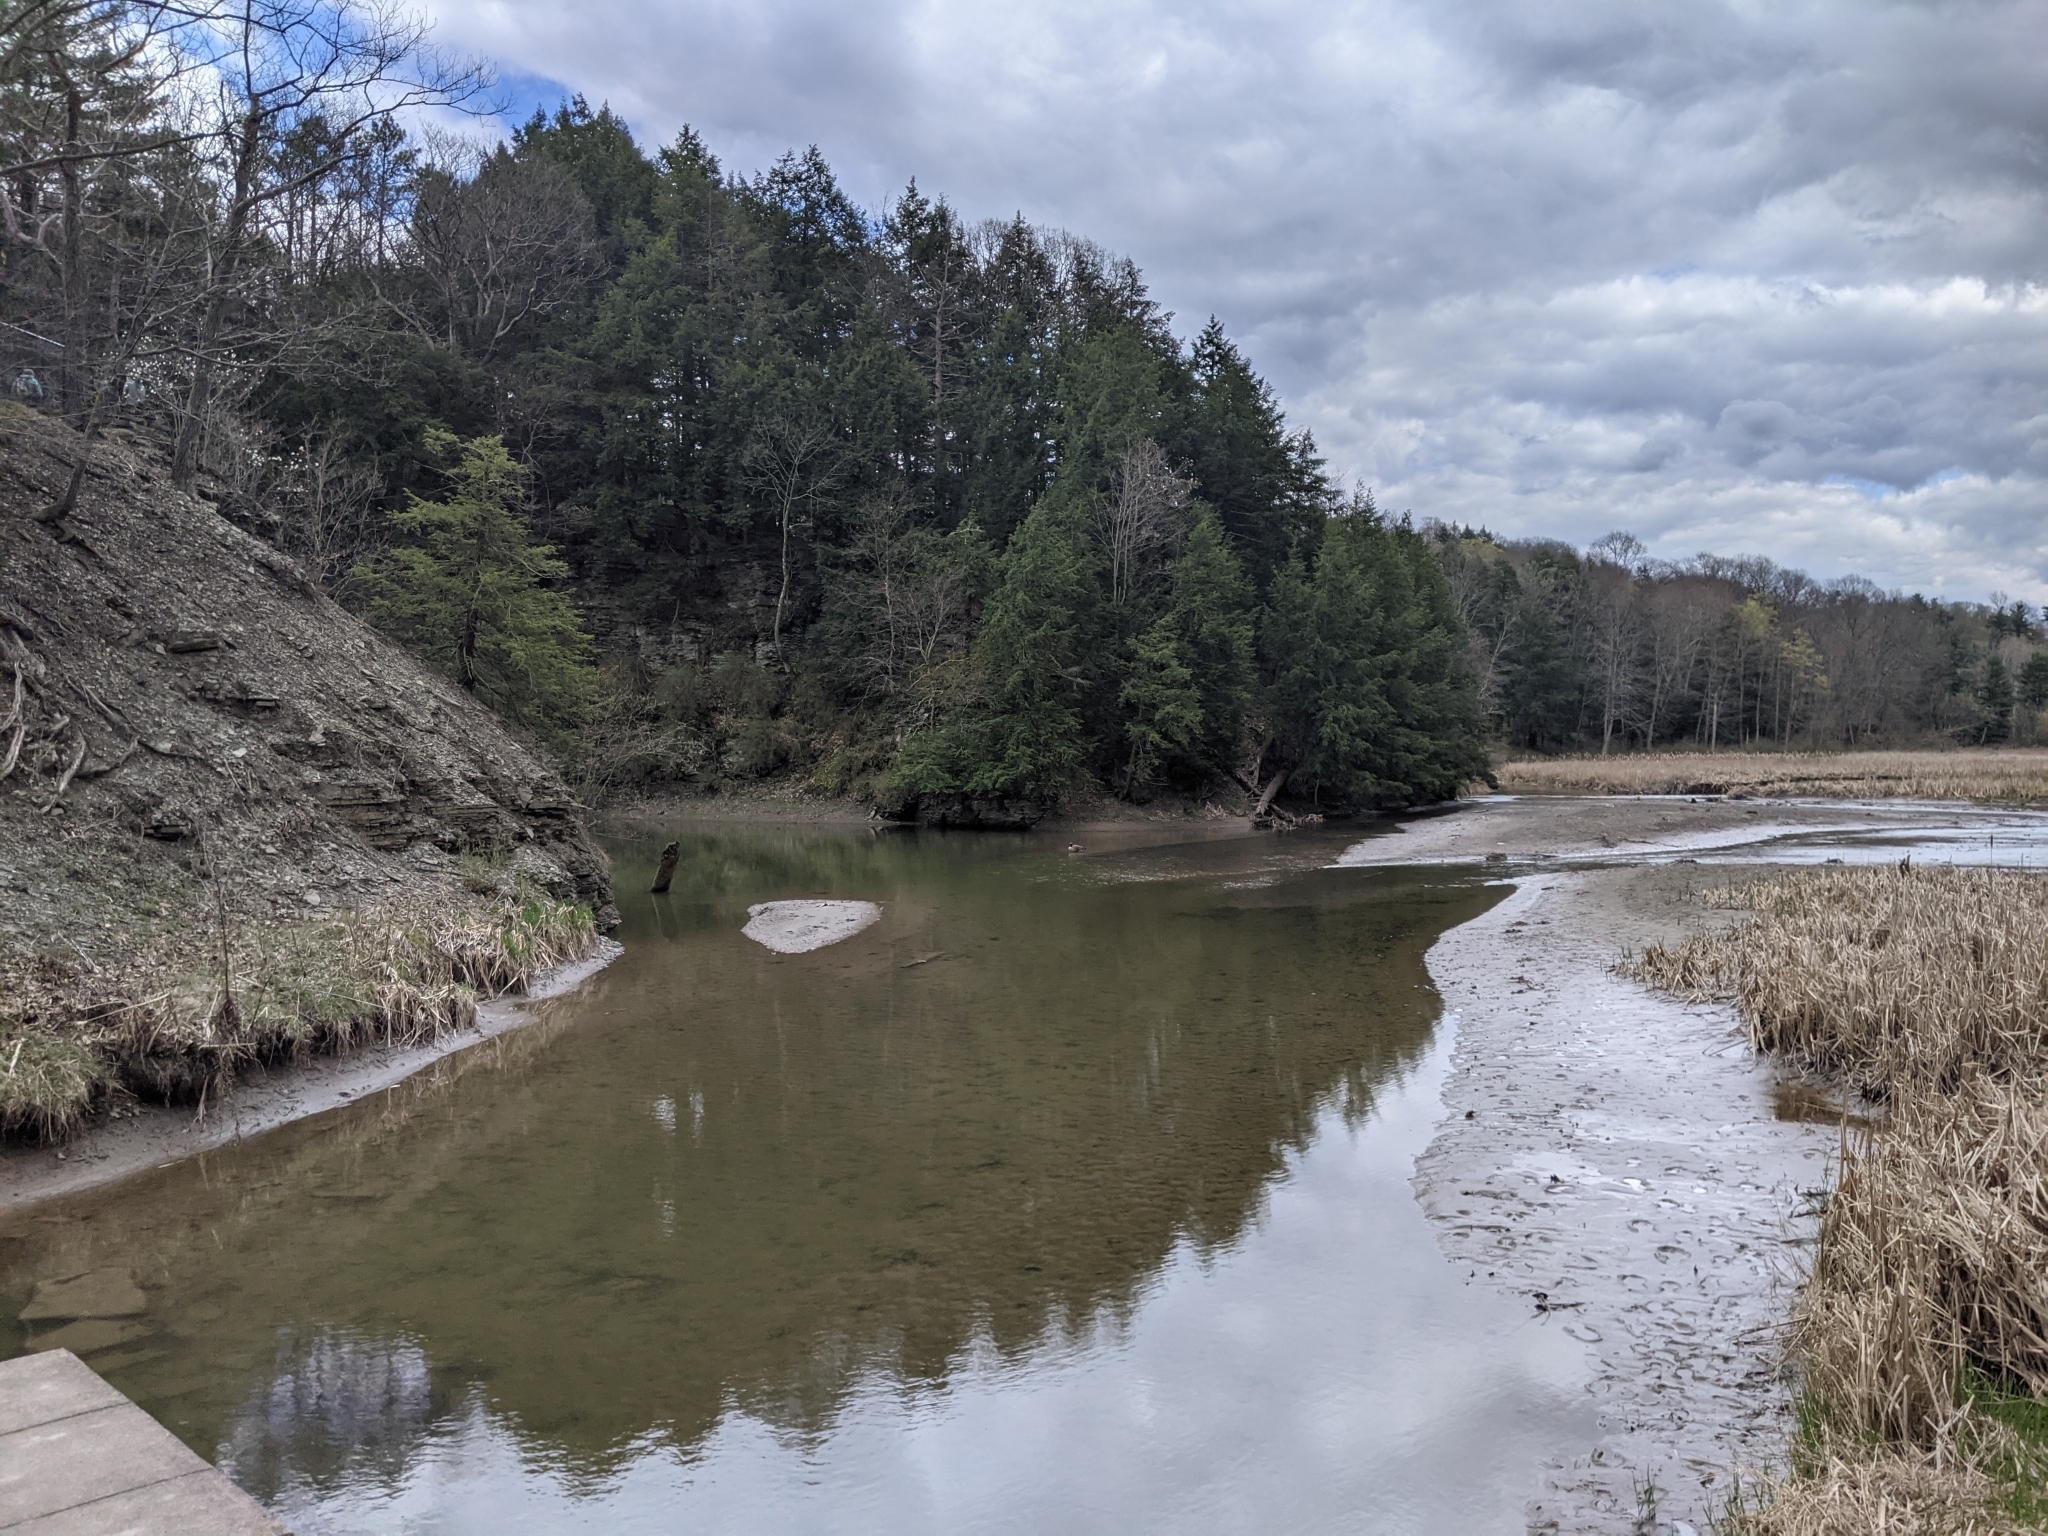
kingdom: Animalia
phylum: Chordata
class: Aves
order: Anseriformes
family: Anatidae
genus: Branta
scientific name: Branta canadensis
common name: Canada goose
